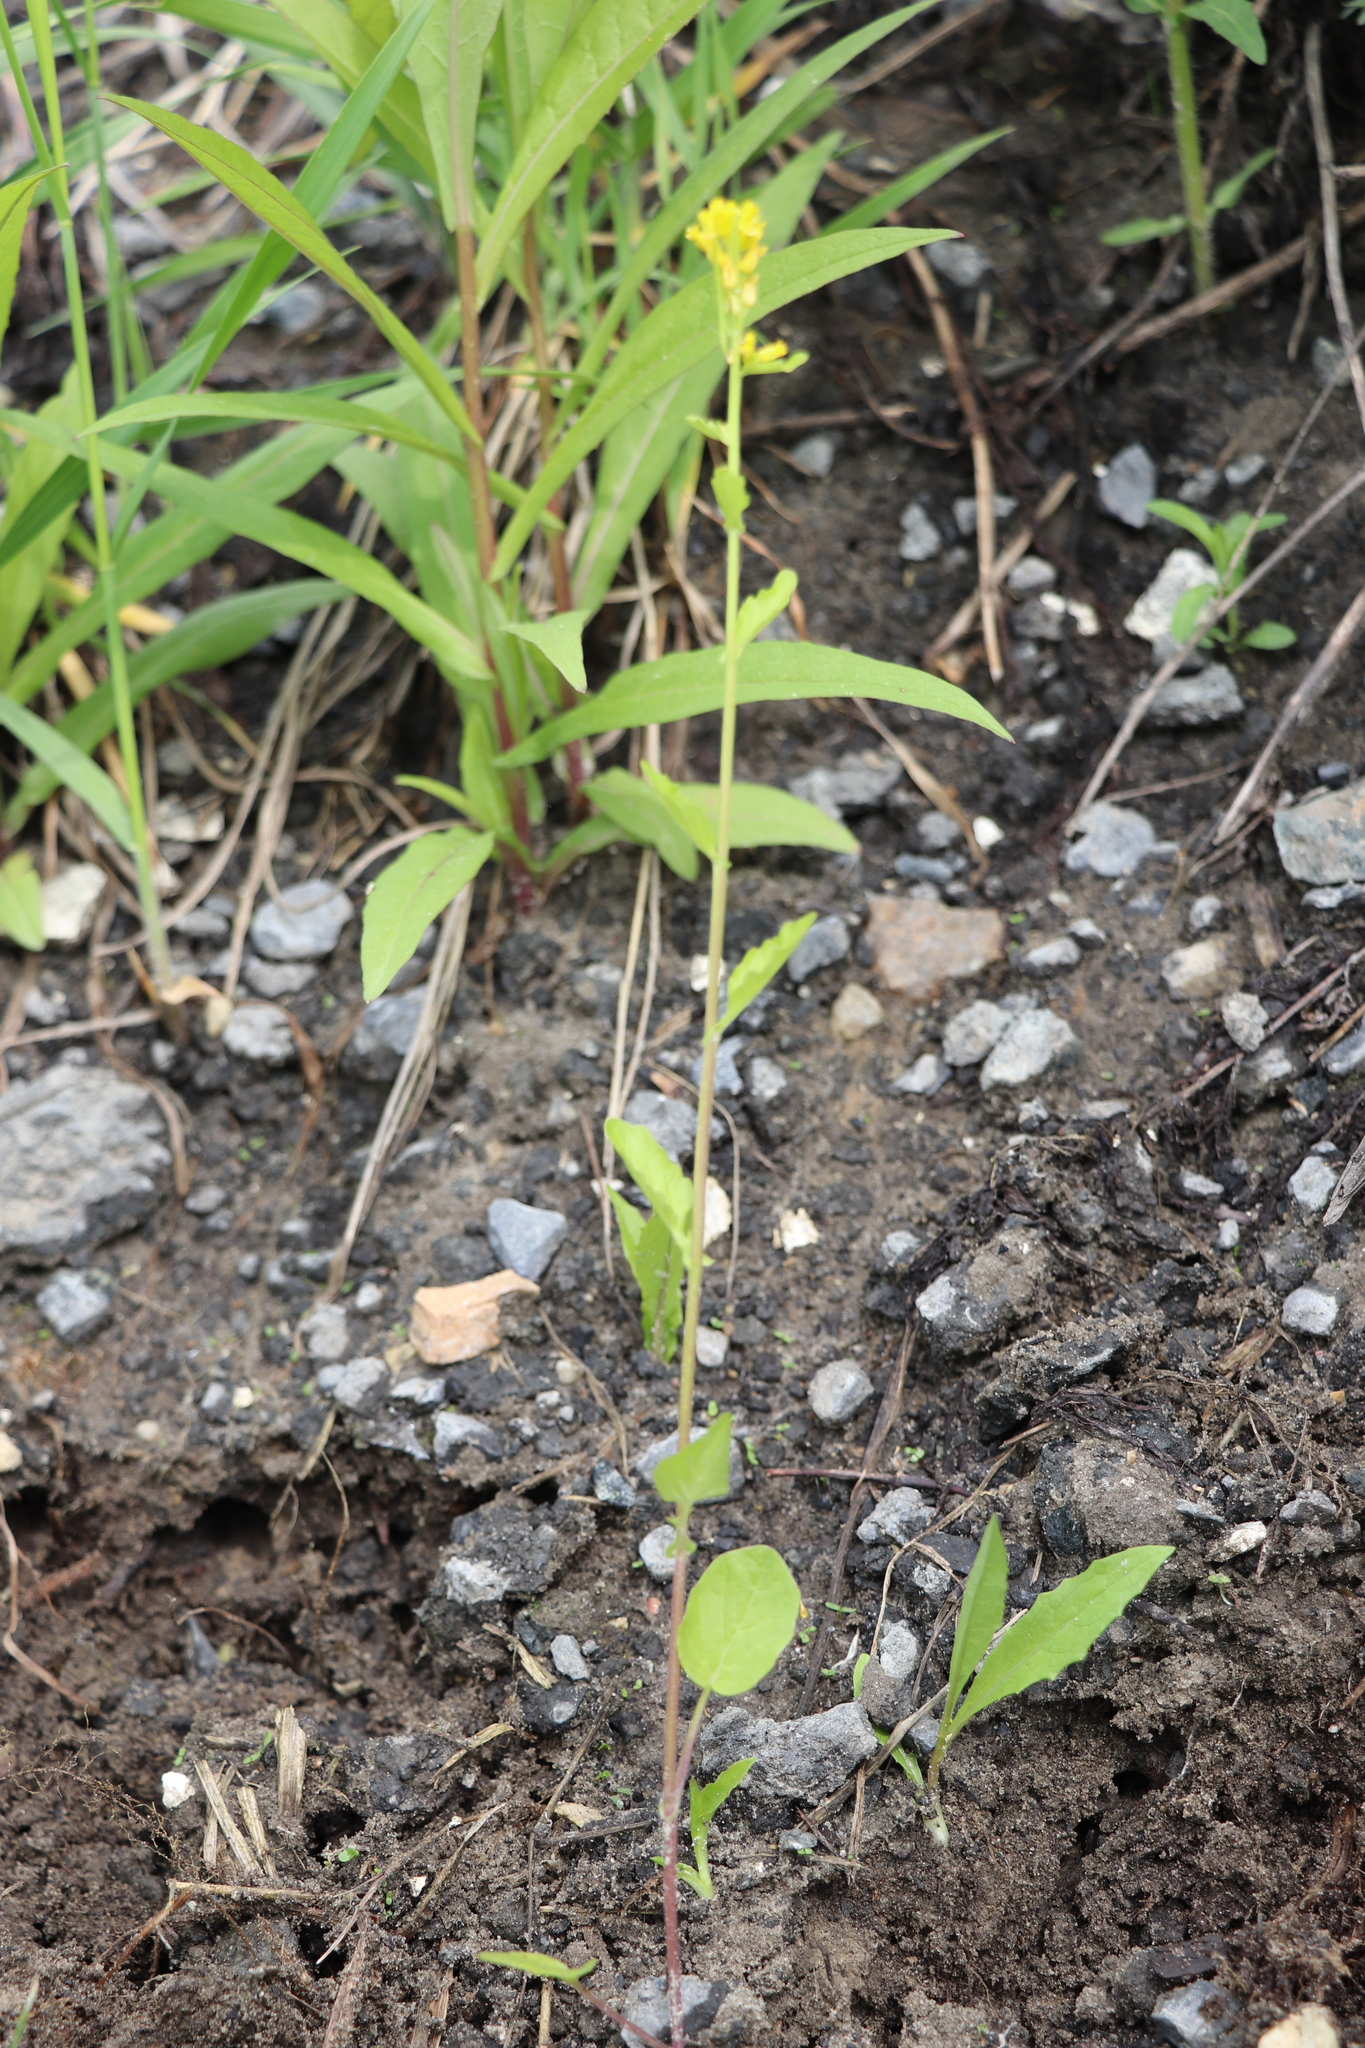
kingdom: Plantae
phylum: Tracheophyta
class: Magnoliopsida
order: Brassicales
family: Brassicaceae
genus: Barbarea
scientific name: Barbarea stricta
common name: Small-flowered winter-cress
